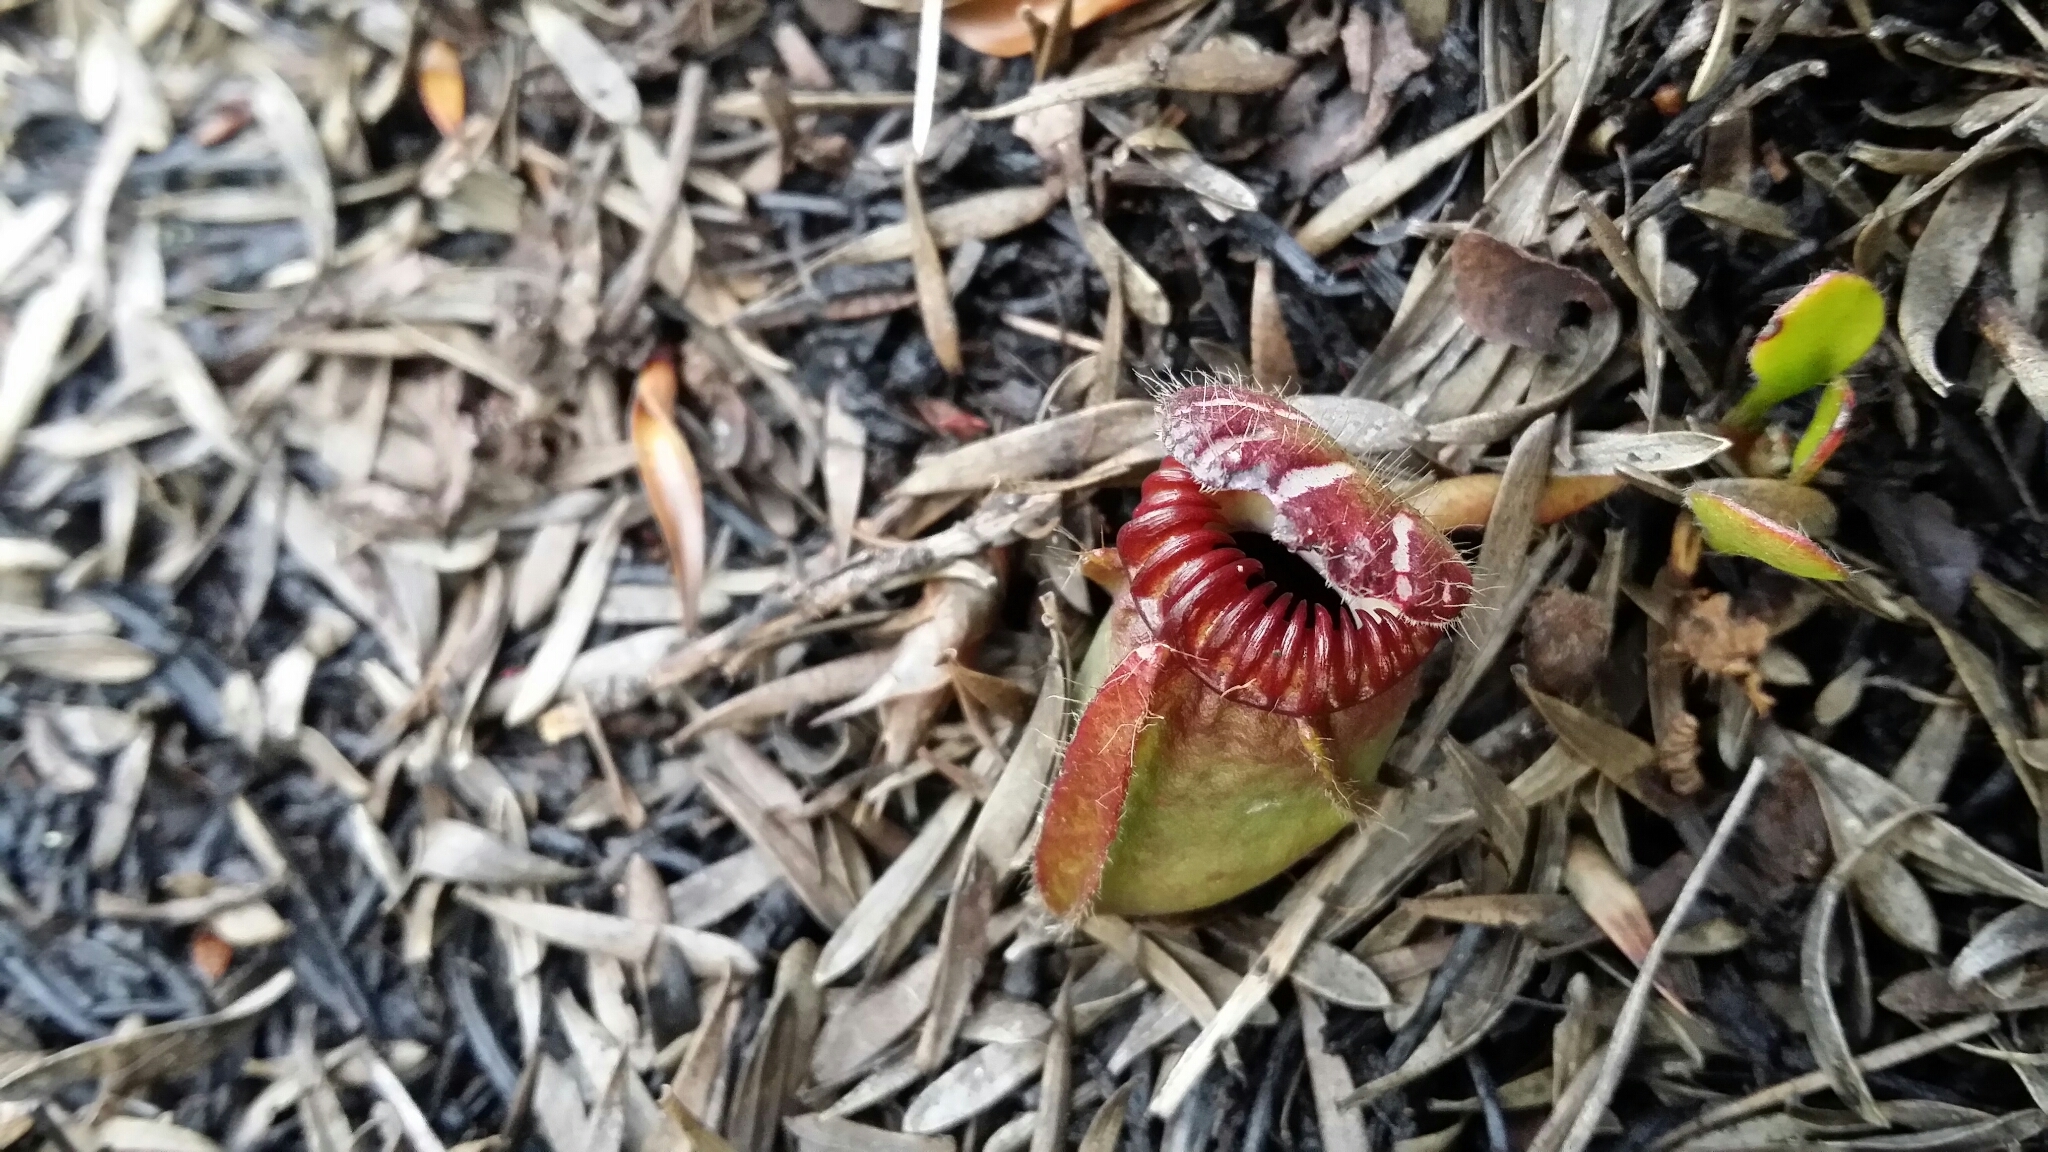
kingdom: Plantae
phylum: Tracheophyta
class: Magnoliopsida
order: Oxalidales
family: Cephalotaceae
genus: Cephalotus
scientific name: Cephalotus follicularis
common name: Australian pitcher plant
